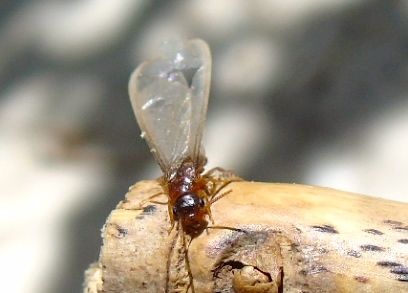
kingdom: Animalia
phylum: Arthropoda
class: Insecta
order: Blattodea
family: Rhinotermitidae
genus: Coptotermes
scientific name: Coptotermes gestroi
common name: Subterranean termite
